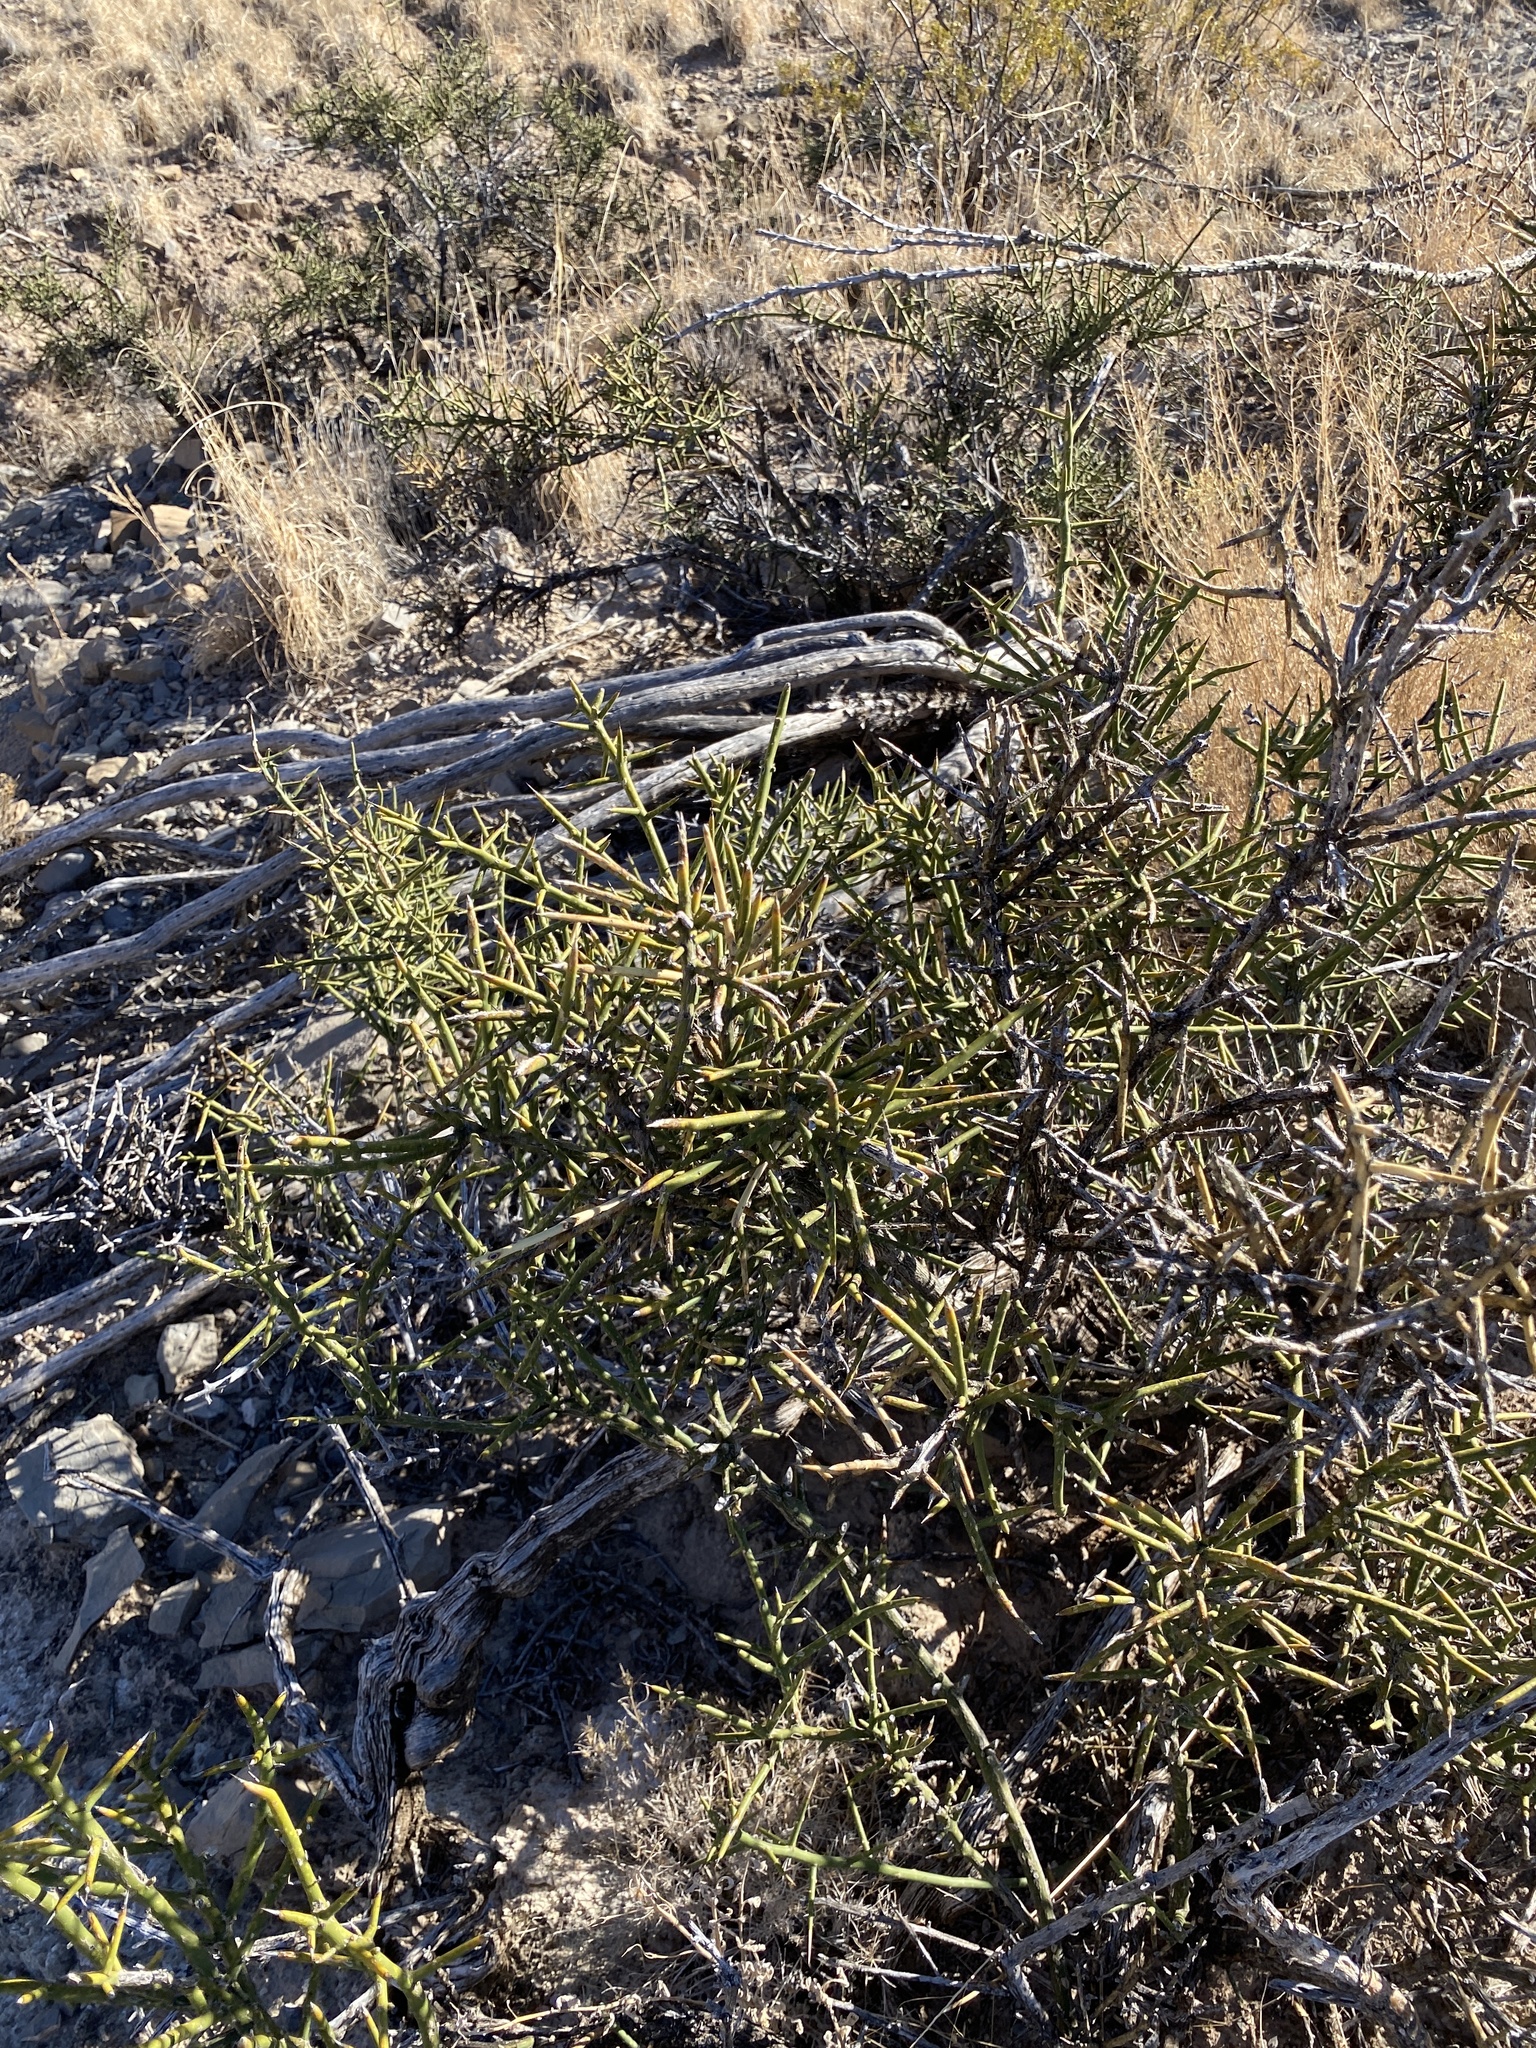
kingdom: Plantae
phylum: Tracheophyta
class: Magnoliopsida
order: Brassicales
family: Koeberliniaceae
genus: Koeberlinia
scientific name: Koeberlinia spinosa
